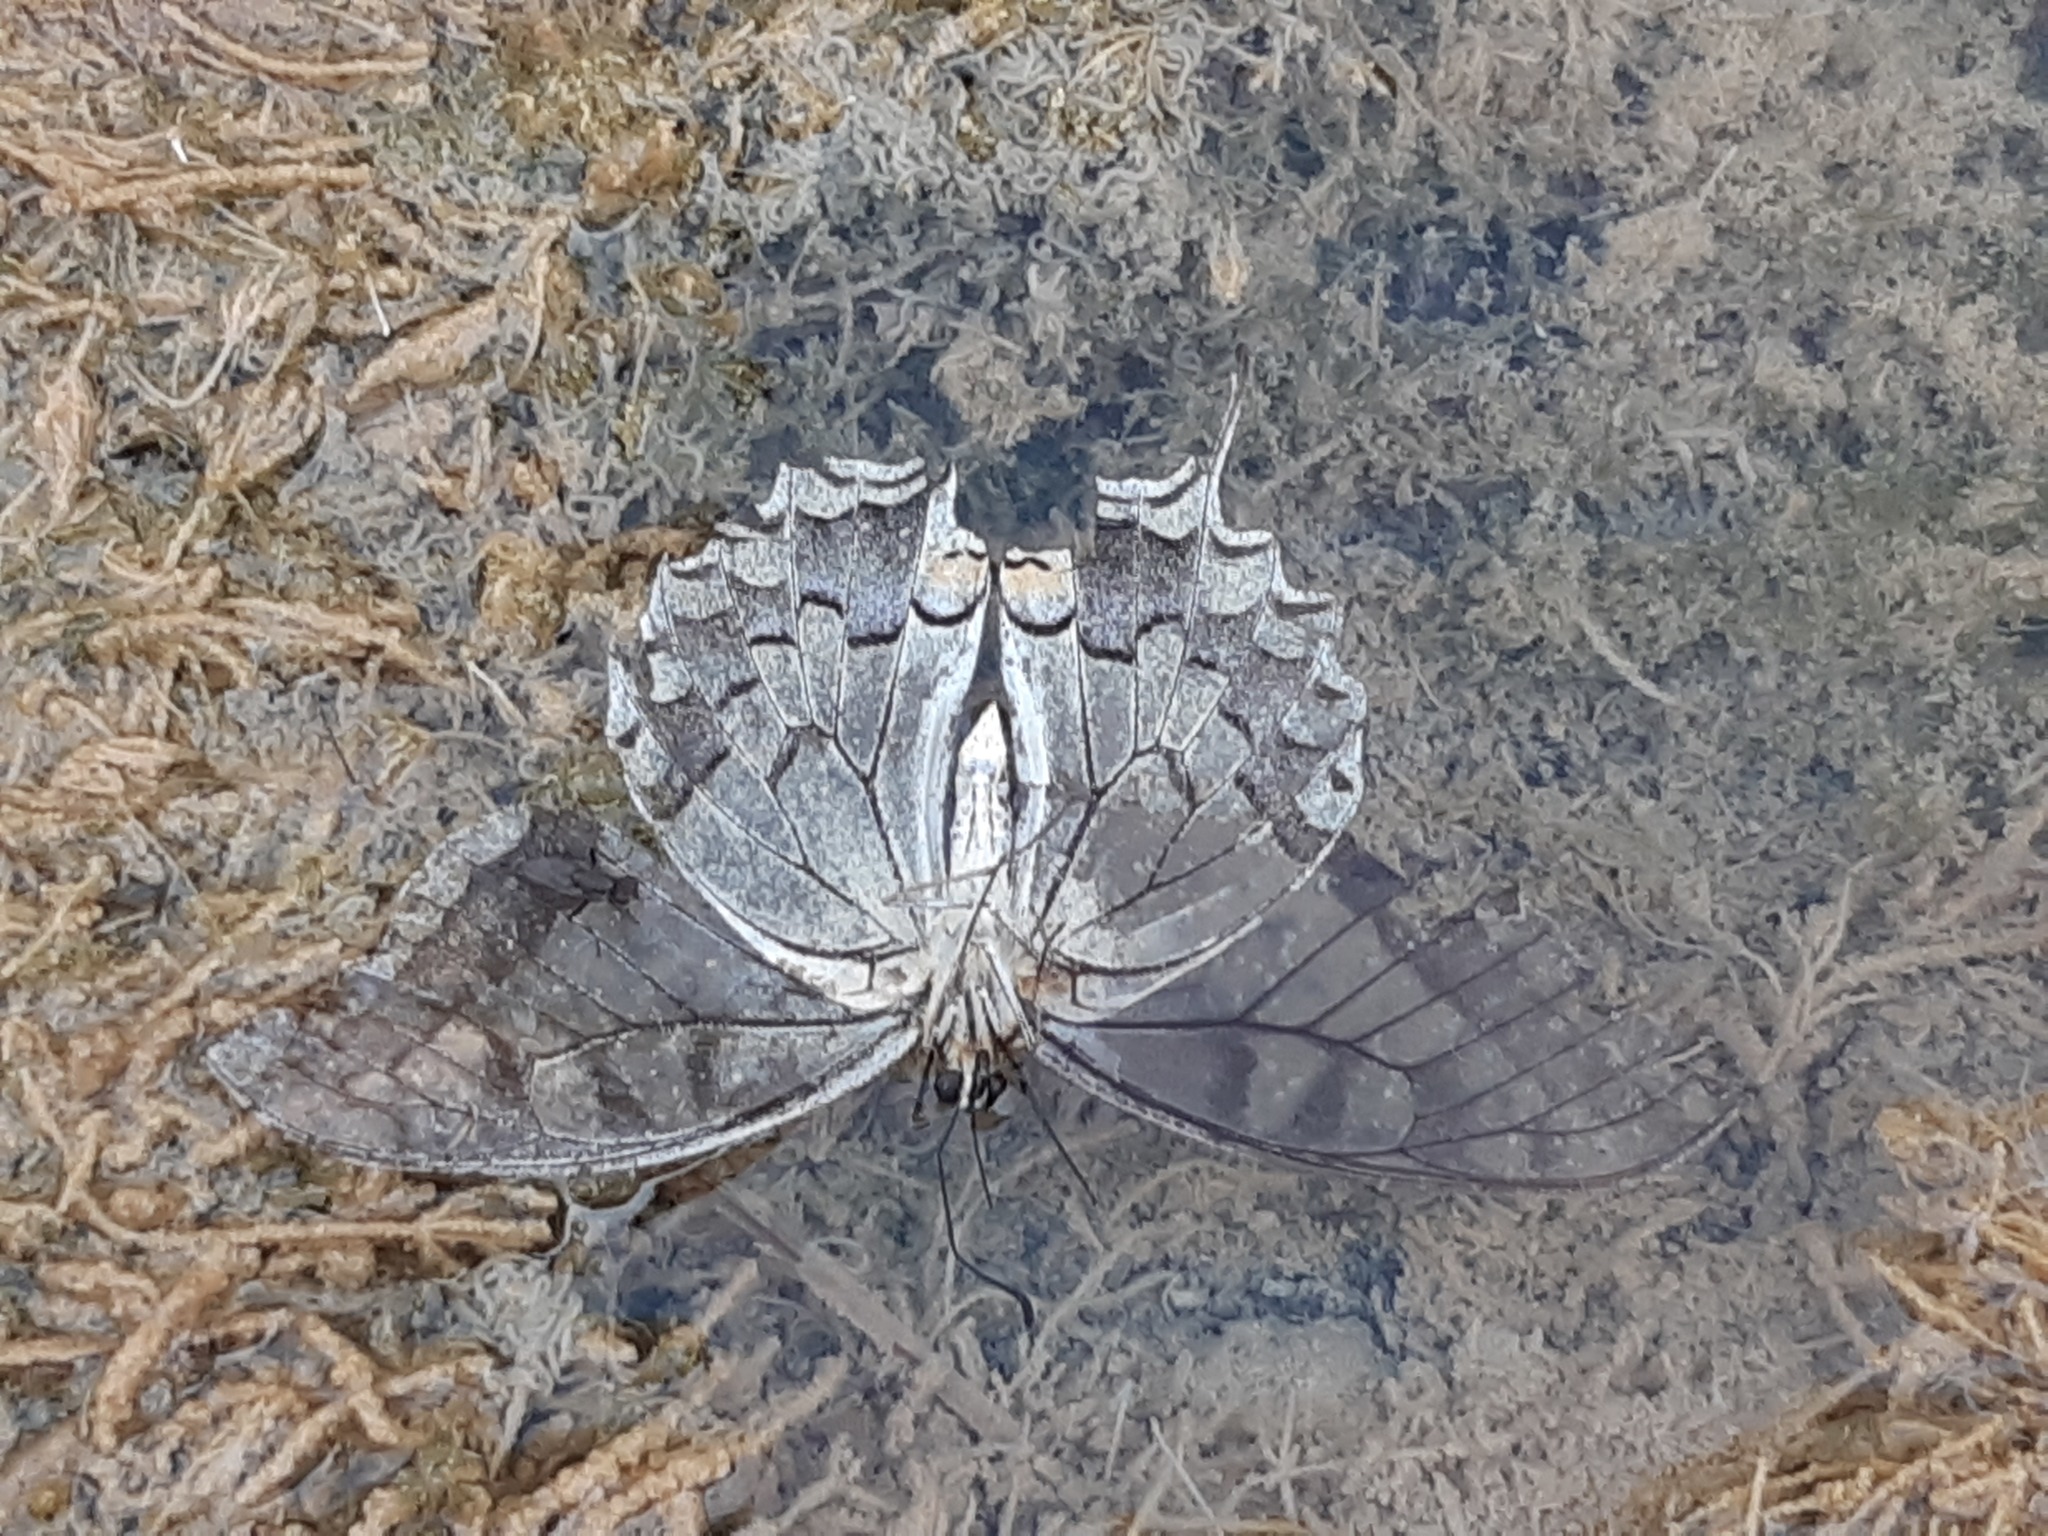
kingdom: Animalia
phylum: Arthropoda
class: Insecta
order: Lepidoptera
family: Papilionidae
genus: Papilio
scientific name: Papilio machaon
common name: Swallowtail
